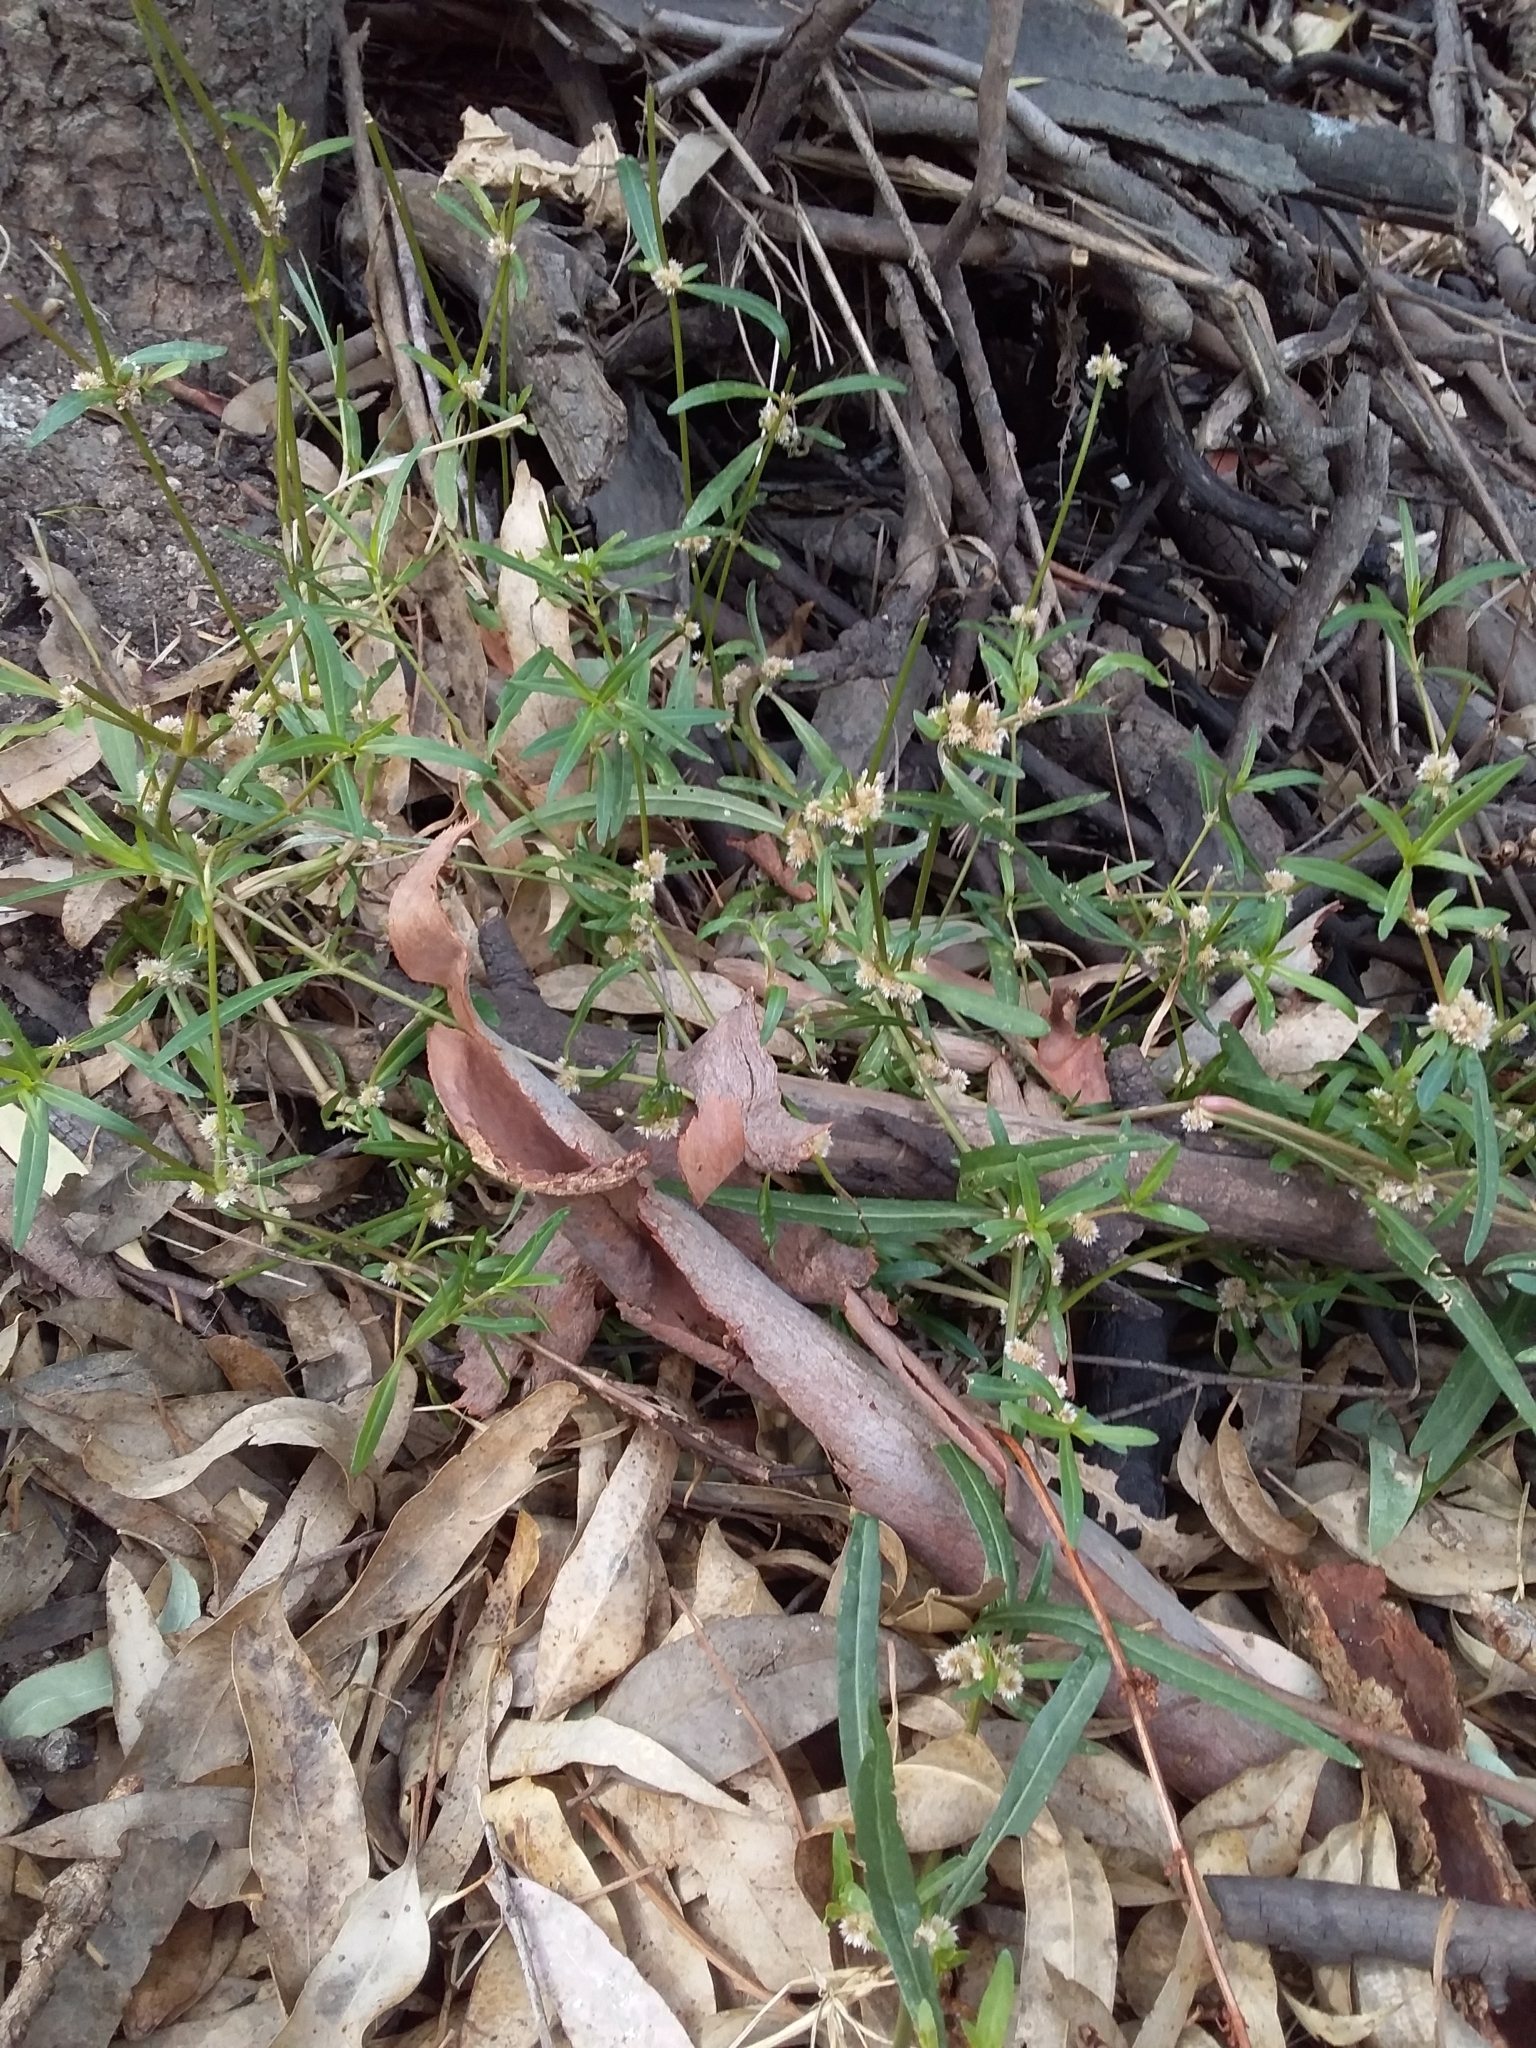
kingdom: Plantae
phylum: Tracheophyta
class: Magnoliopsida
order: Caryophyllales
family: Amaranthaceae
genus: Alternanthera
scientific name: Alternanthera denticulata
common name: Lesser joyweed
